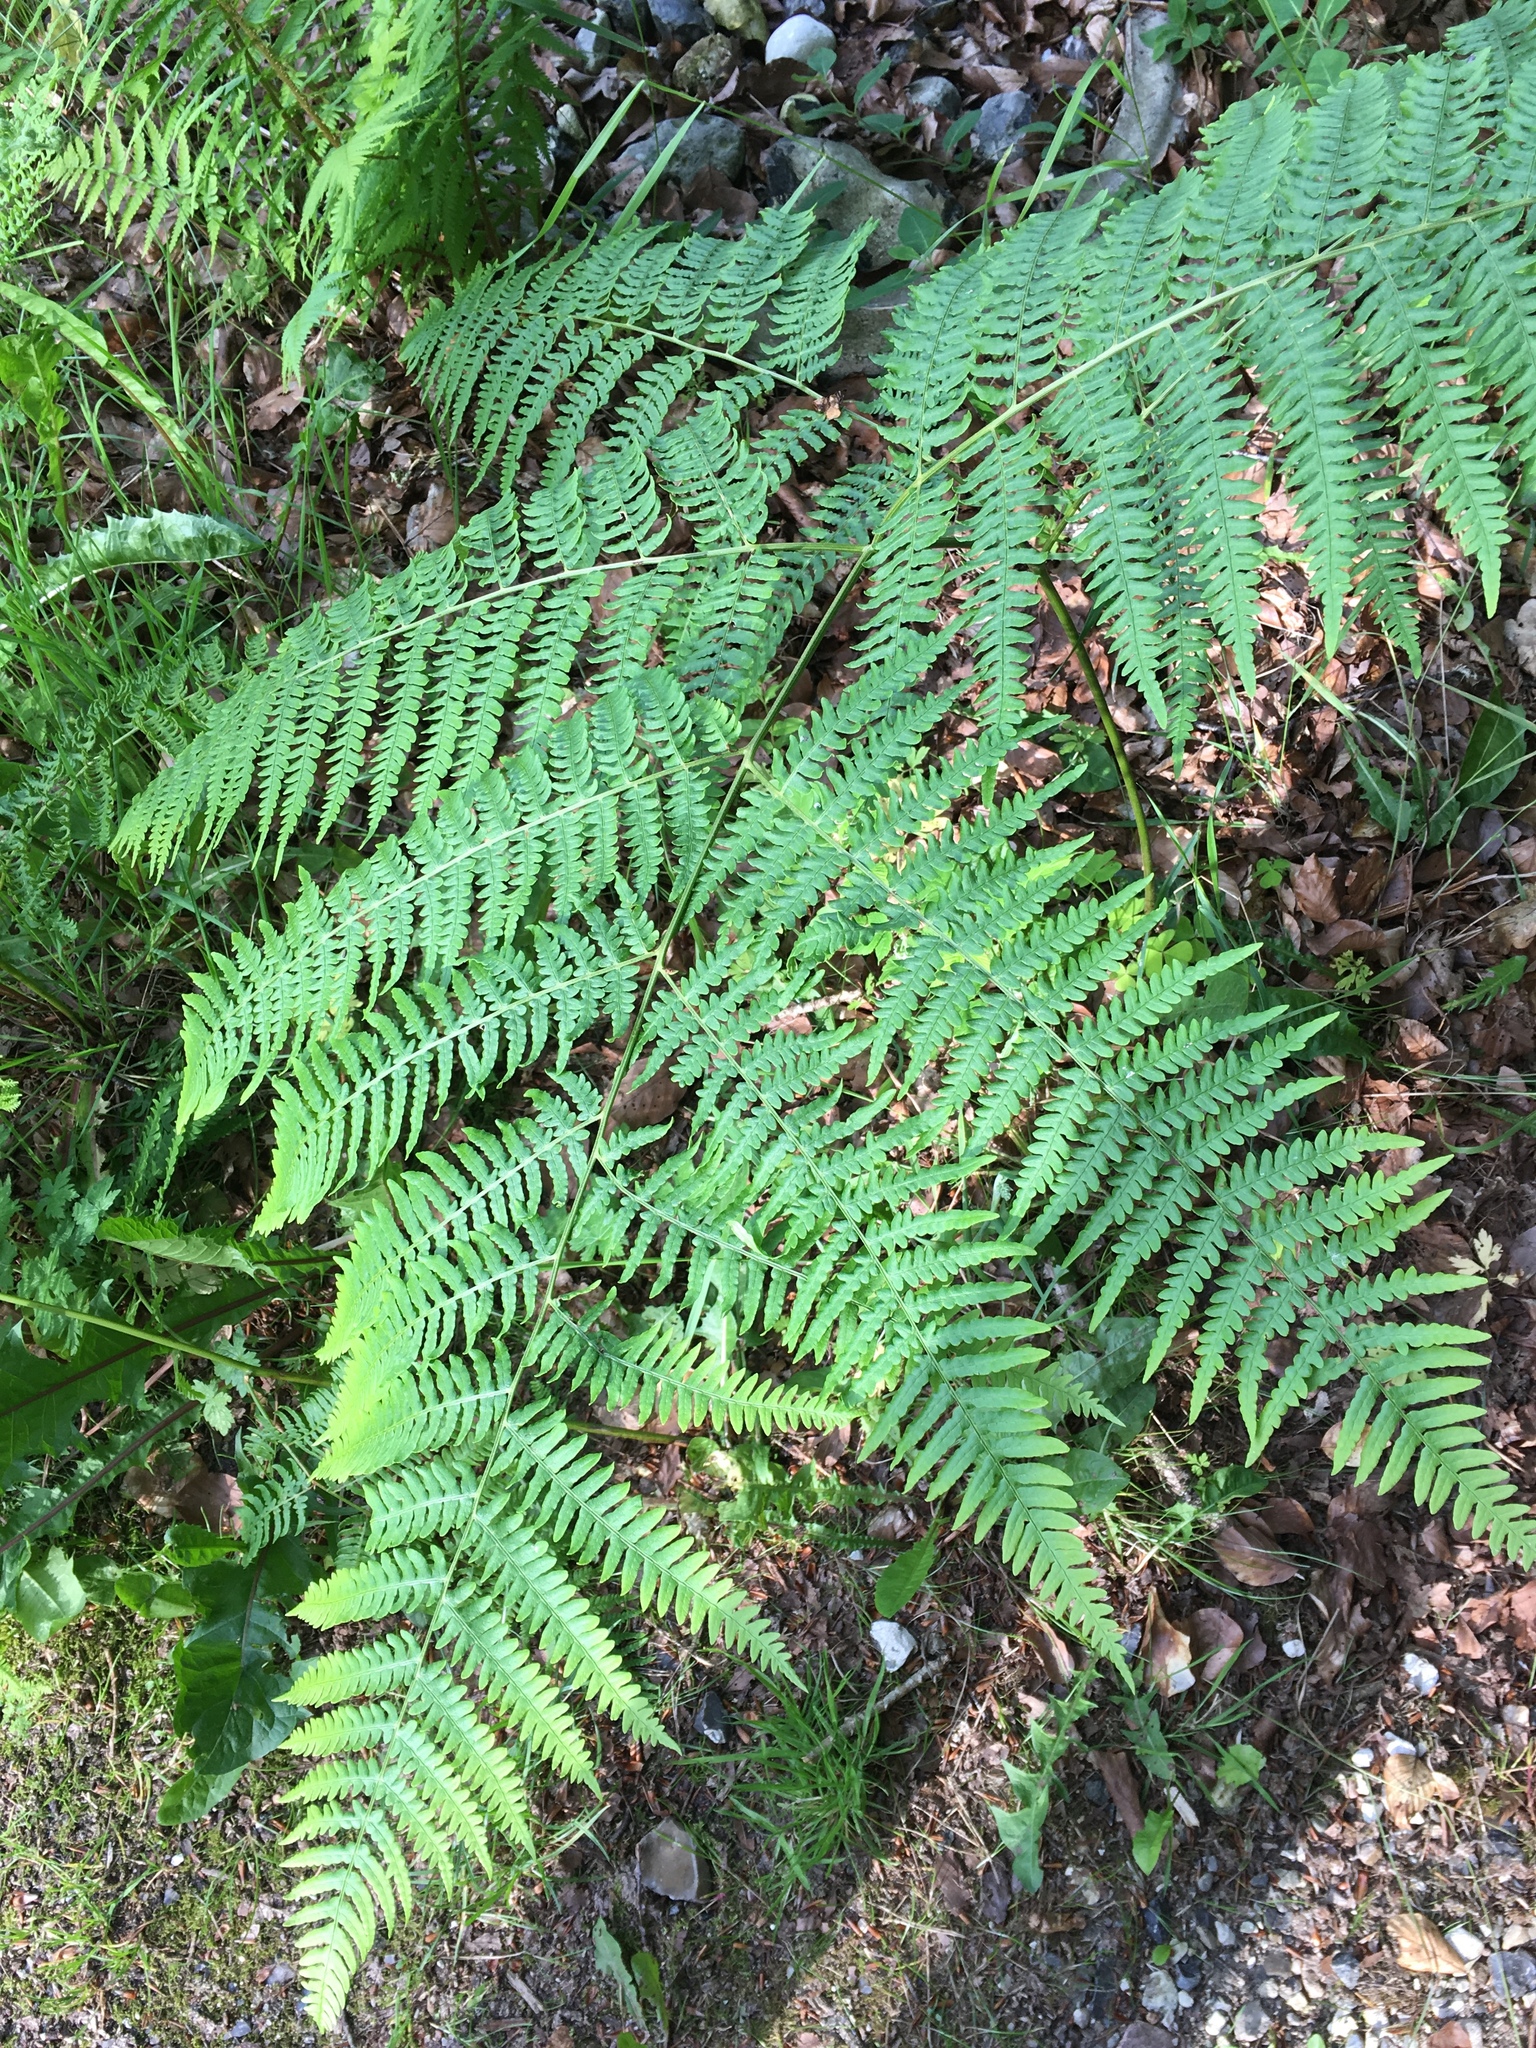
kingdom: Plantae
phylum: Tracheophyta
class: Polypodiopsida
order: Polypodiales
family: Dennstaedtiaceae
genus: Pteridium
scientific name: Pteridium aquilinum
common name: Bracken
